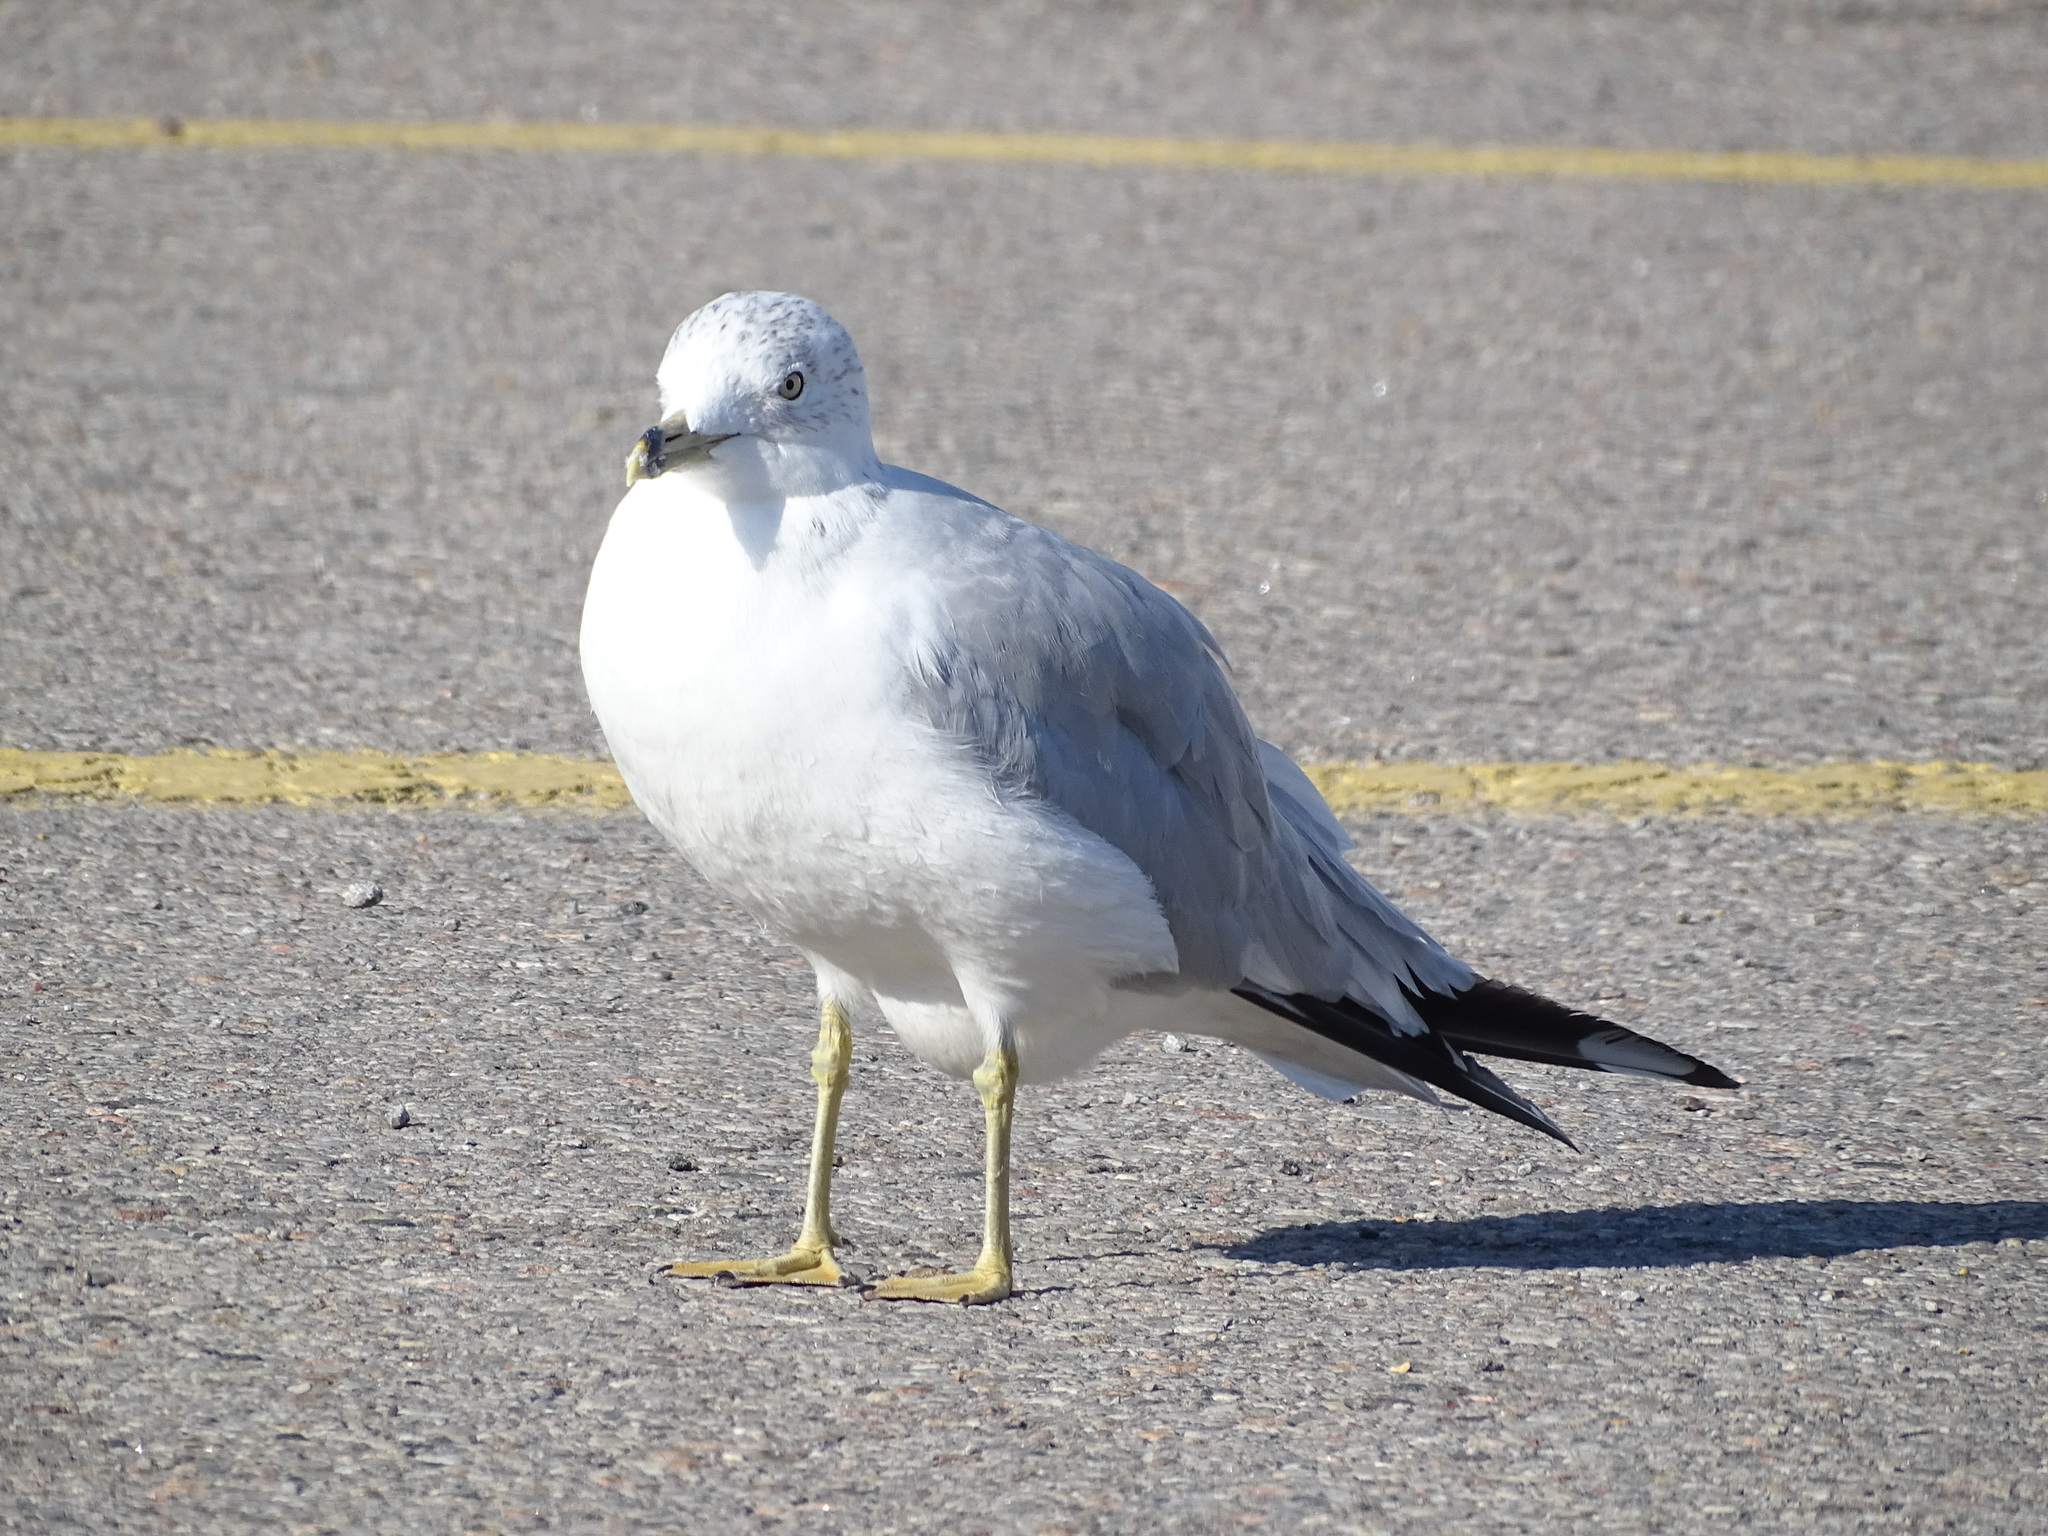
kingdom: Animalia
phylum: Chordata
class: Aves
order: Charadriiformes
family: Laridae
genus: Larus
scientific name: Larus delawarensis
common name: Ring-billed gull
